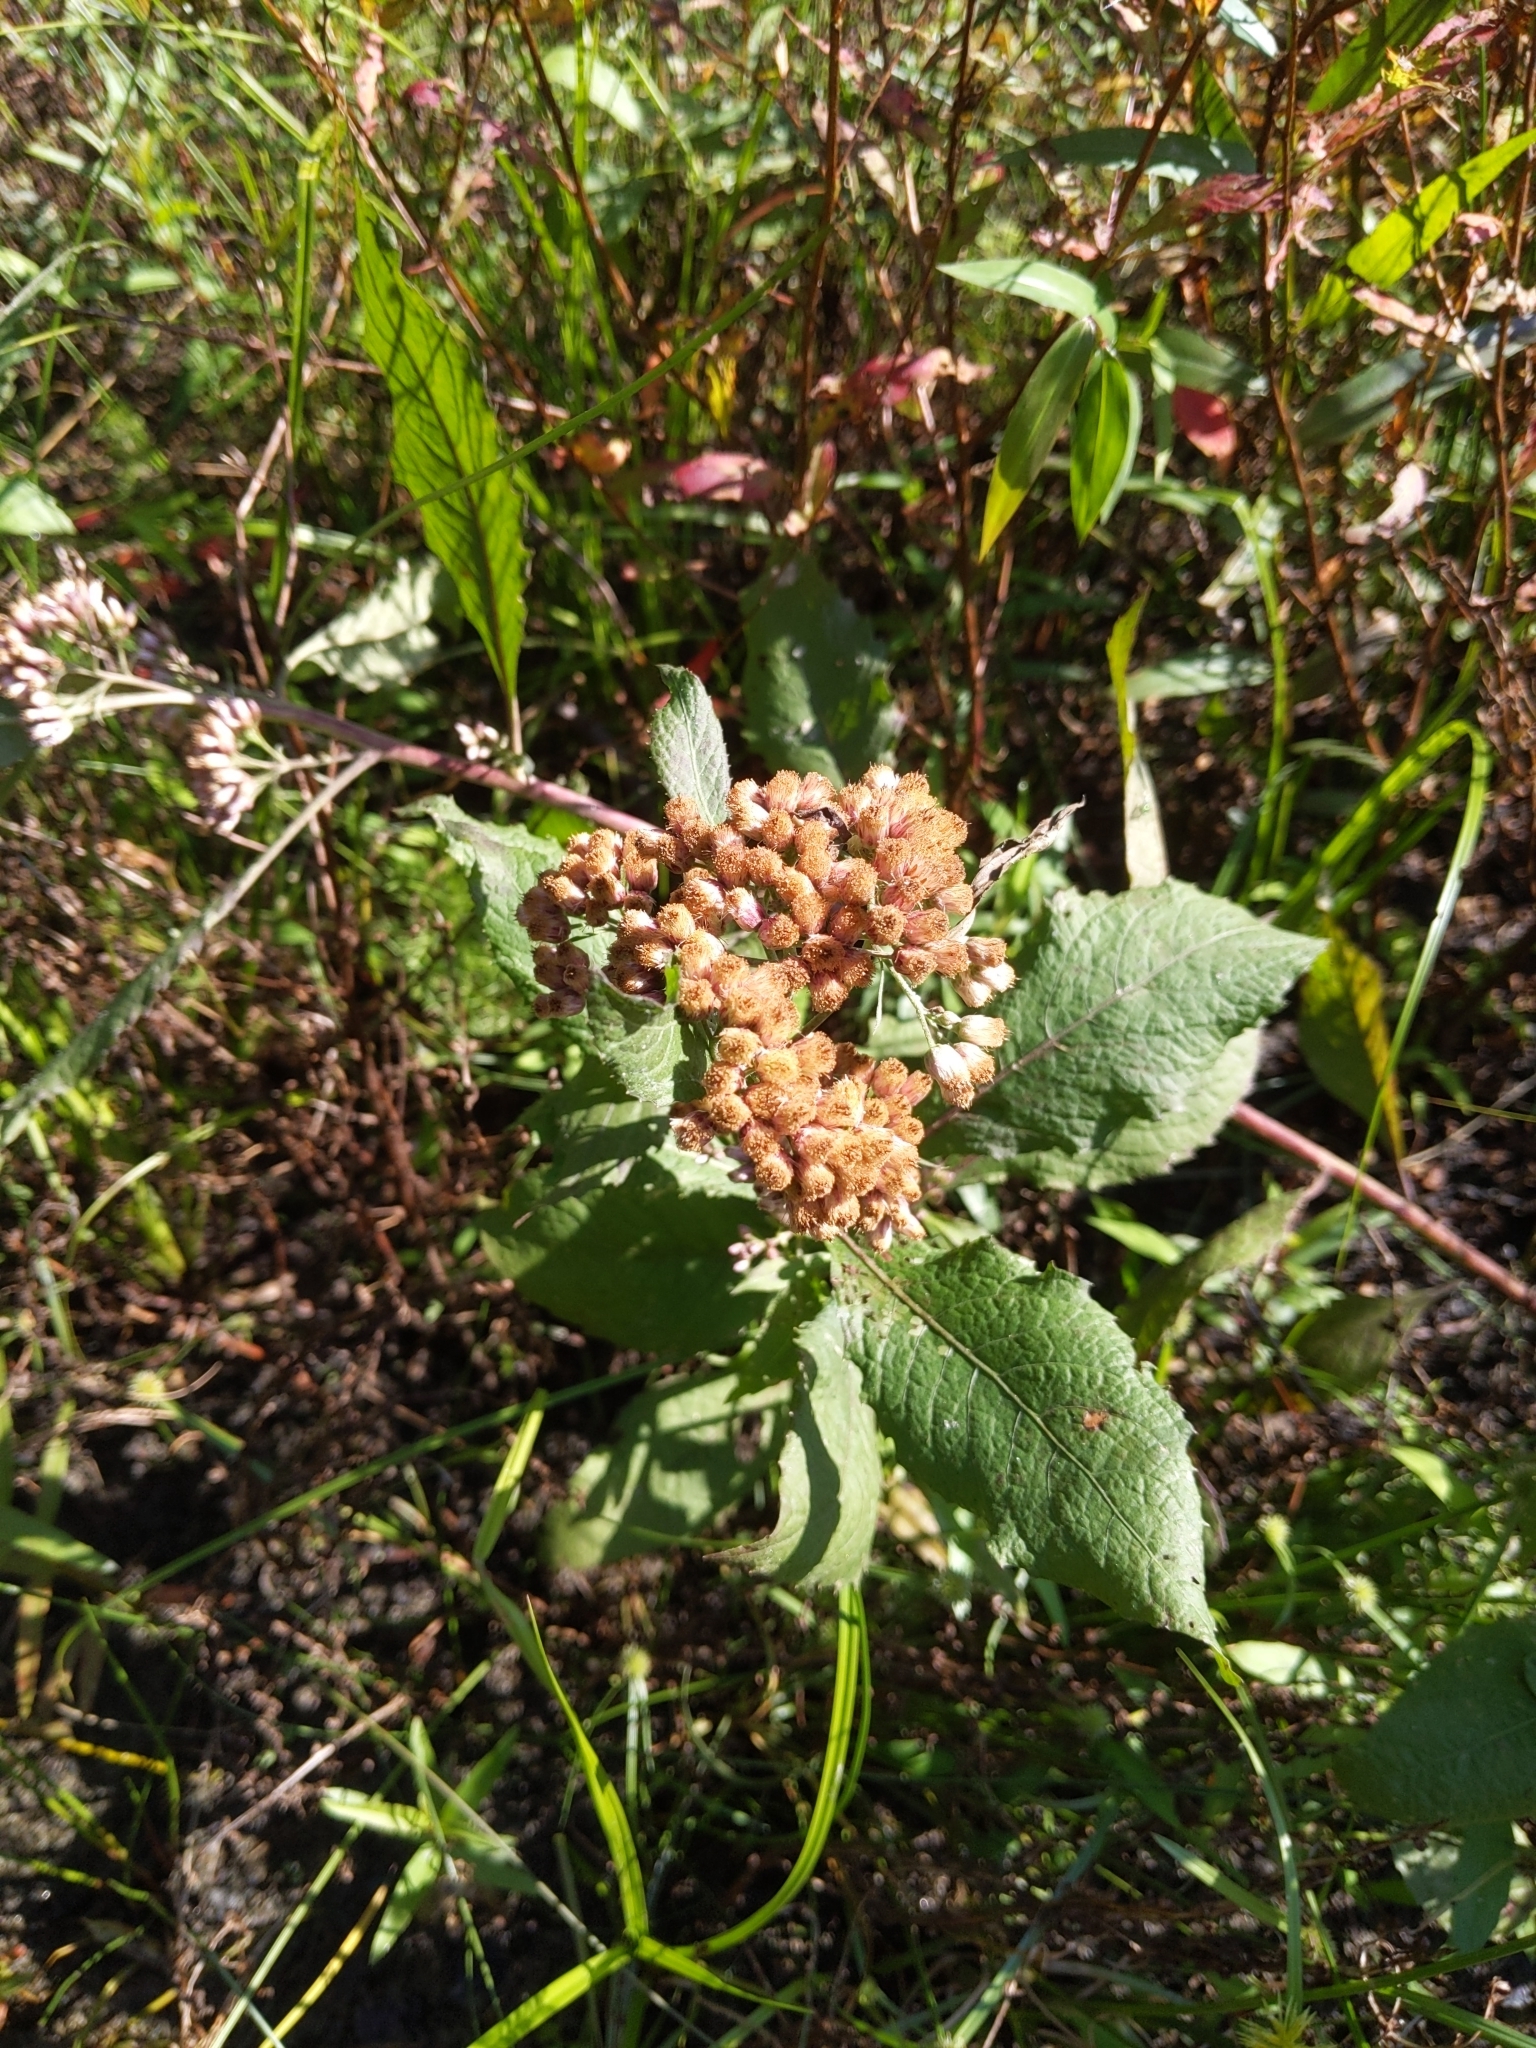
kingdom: Plantae
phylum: Tracheophyta
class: Magnoliopsida
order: Asterales
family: Asteraceae
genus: Pluchea
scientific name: Pluchea camphorata
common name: Camphor pluchea
